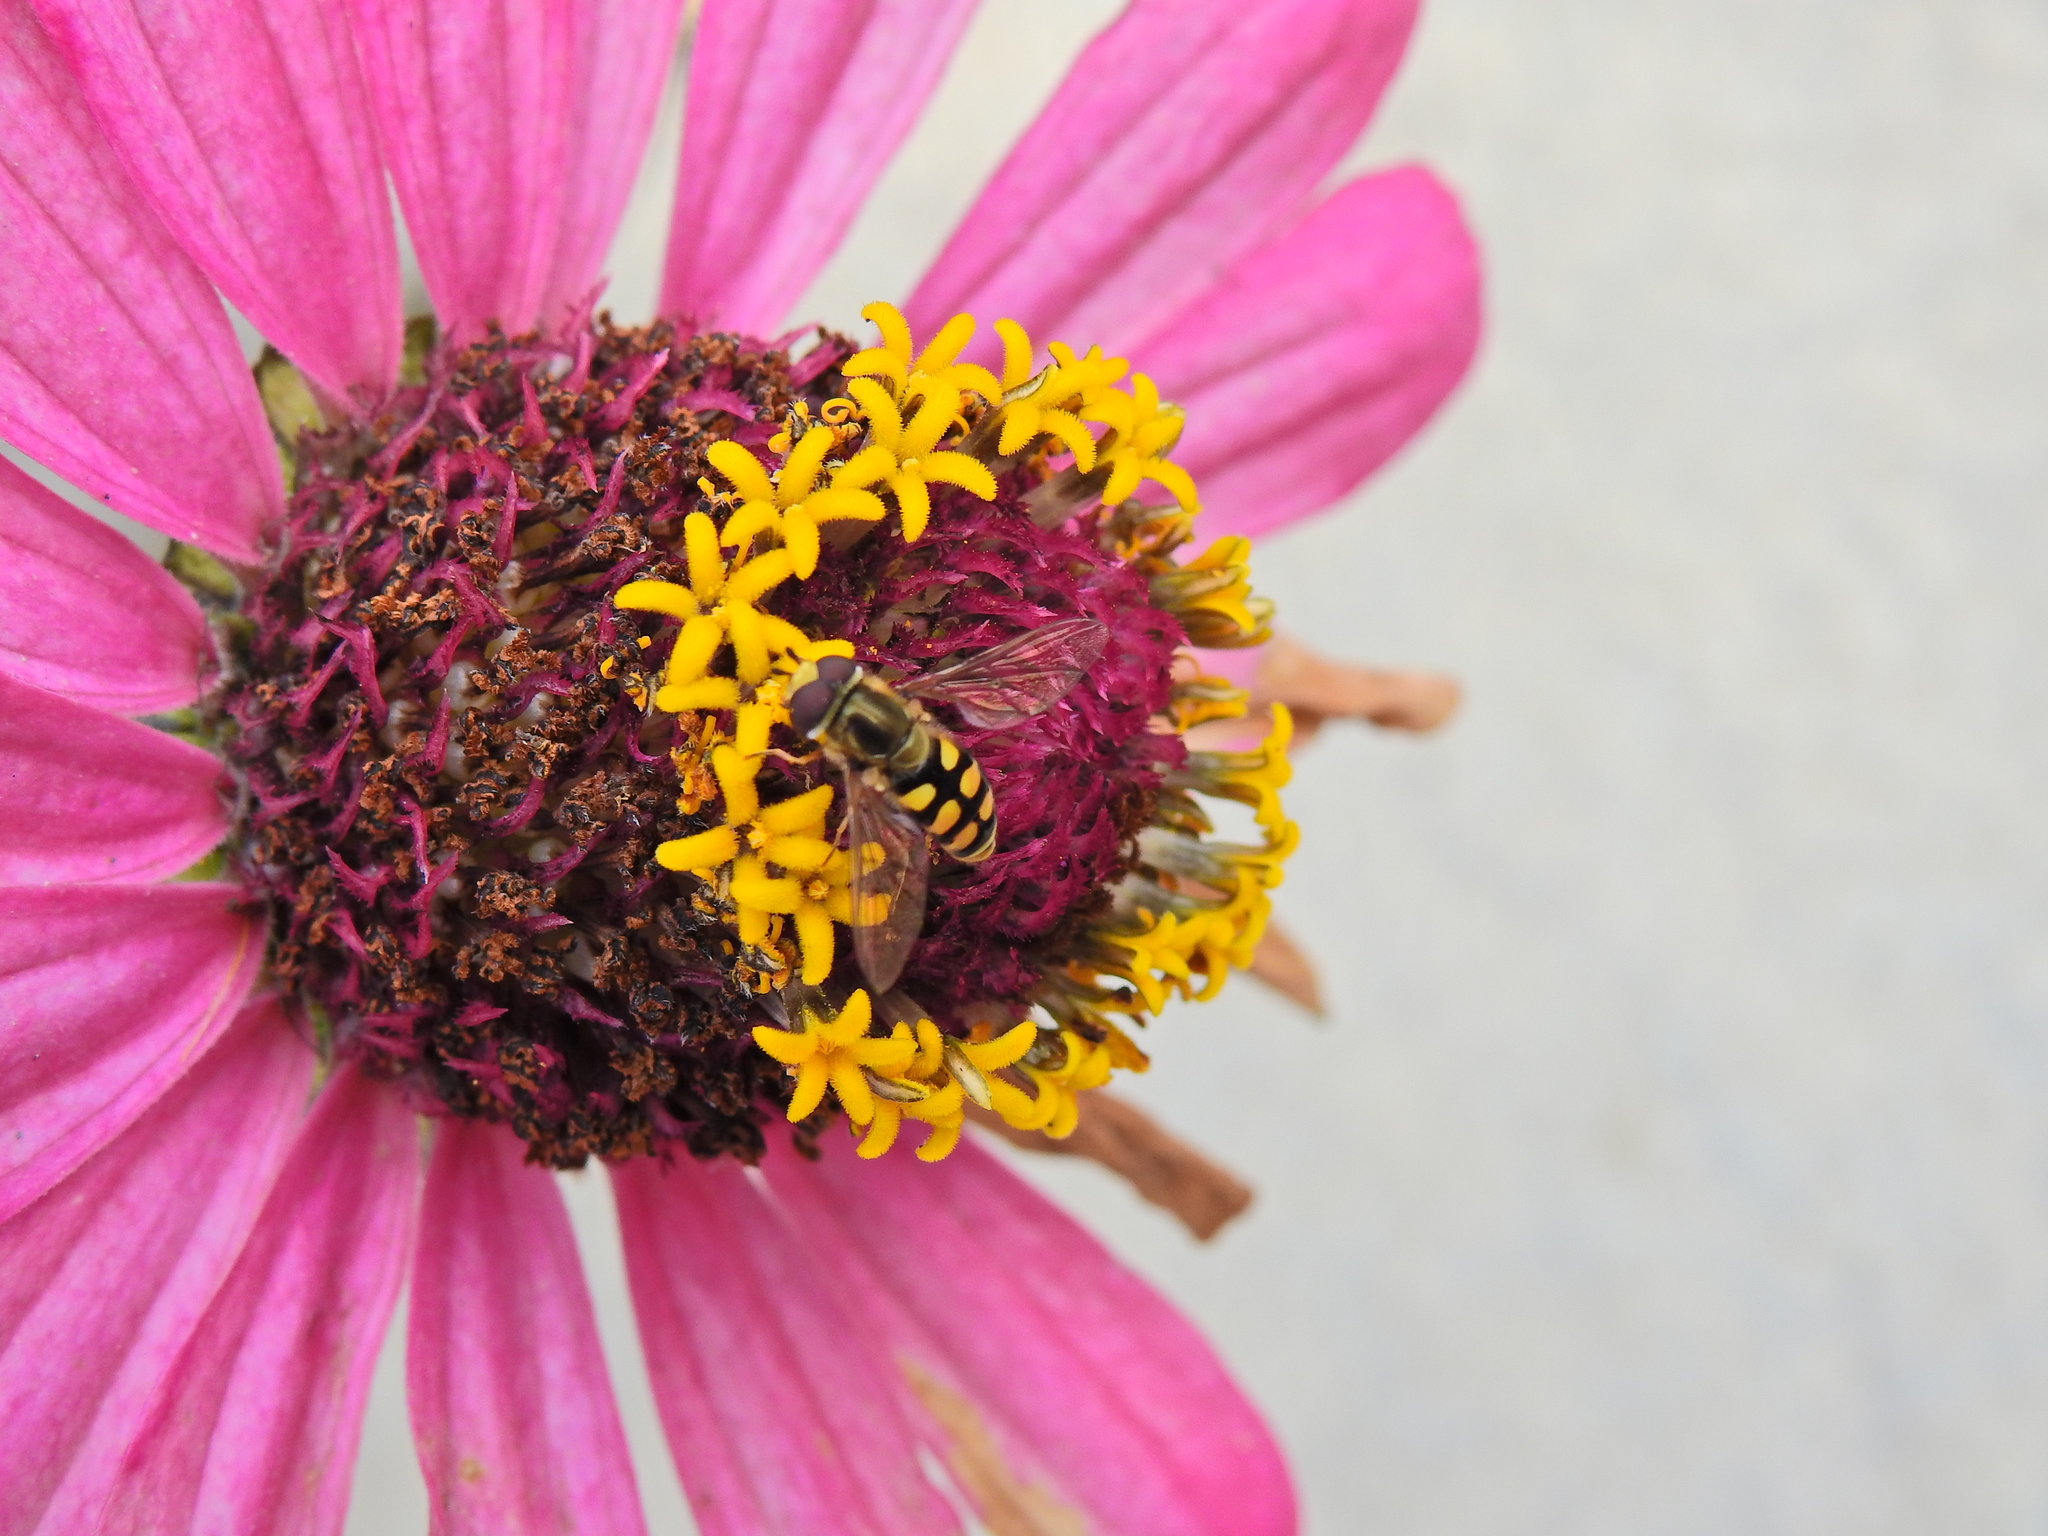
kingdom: Animalia
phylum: Arthropoda
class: Insecta
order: Diptera
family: Syrphidae
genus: Eupeodes
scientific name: Eupeodes corollae
